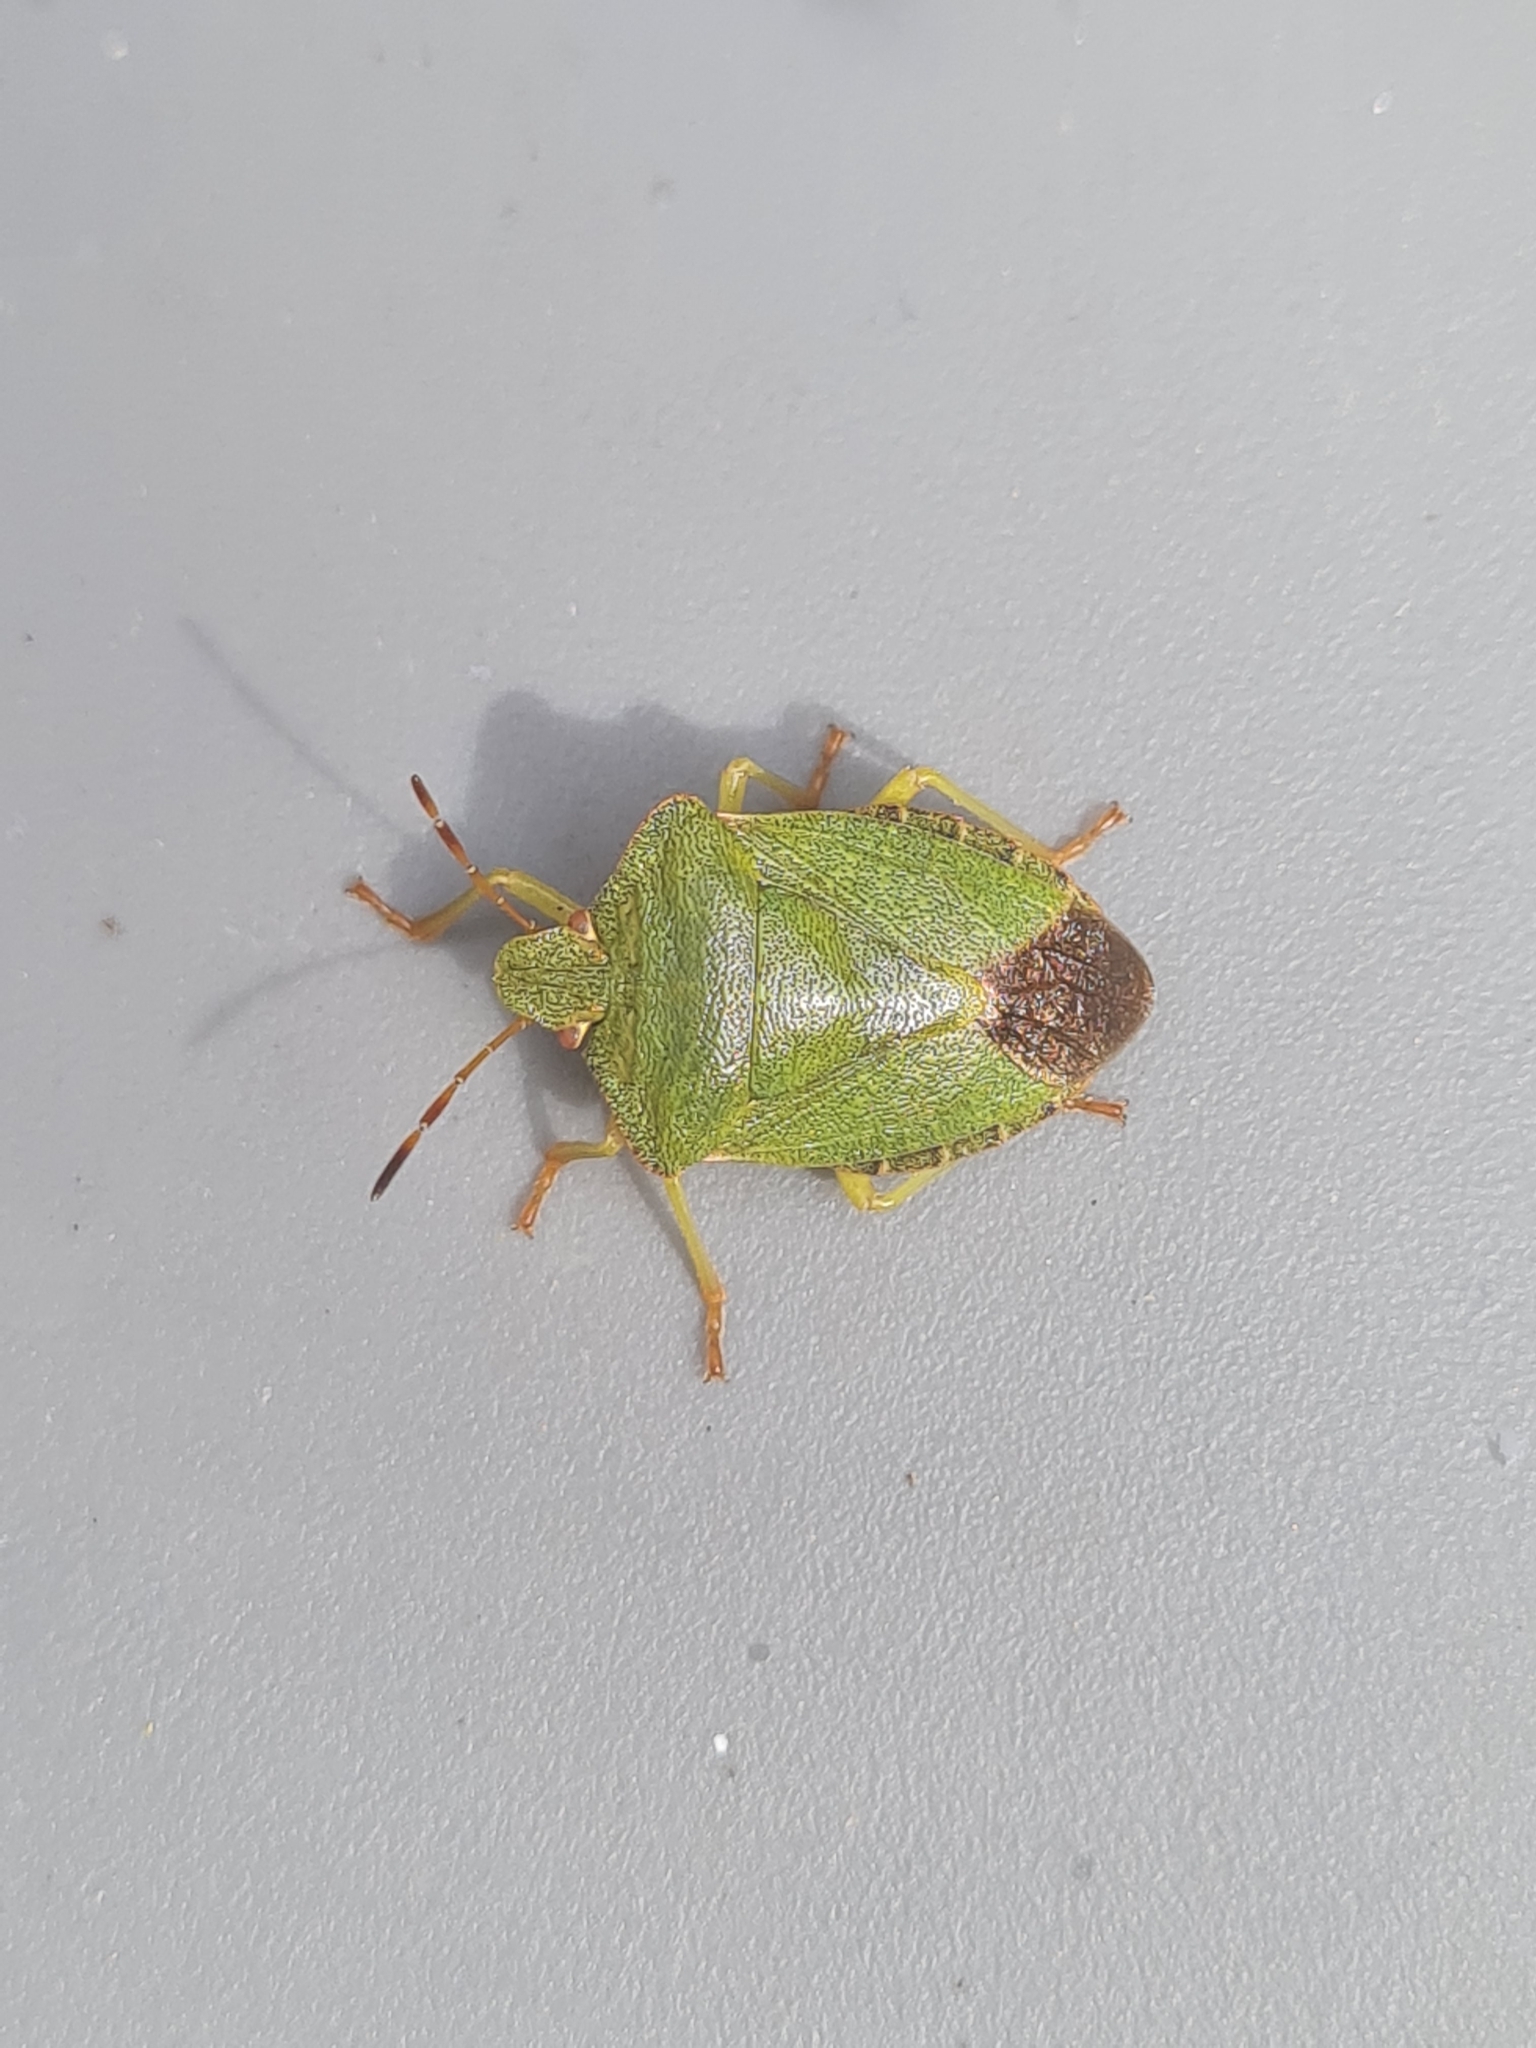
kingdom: Animalia
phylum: Arthropoda
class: Insecta
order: Hemiptera
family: Pentatomidae
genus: Palomena
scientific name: Palomena prasina
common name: Green shieldbug
